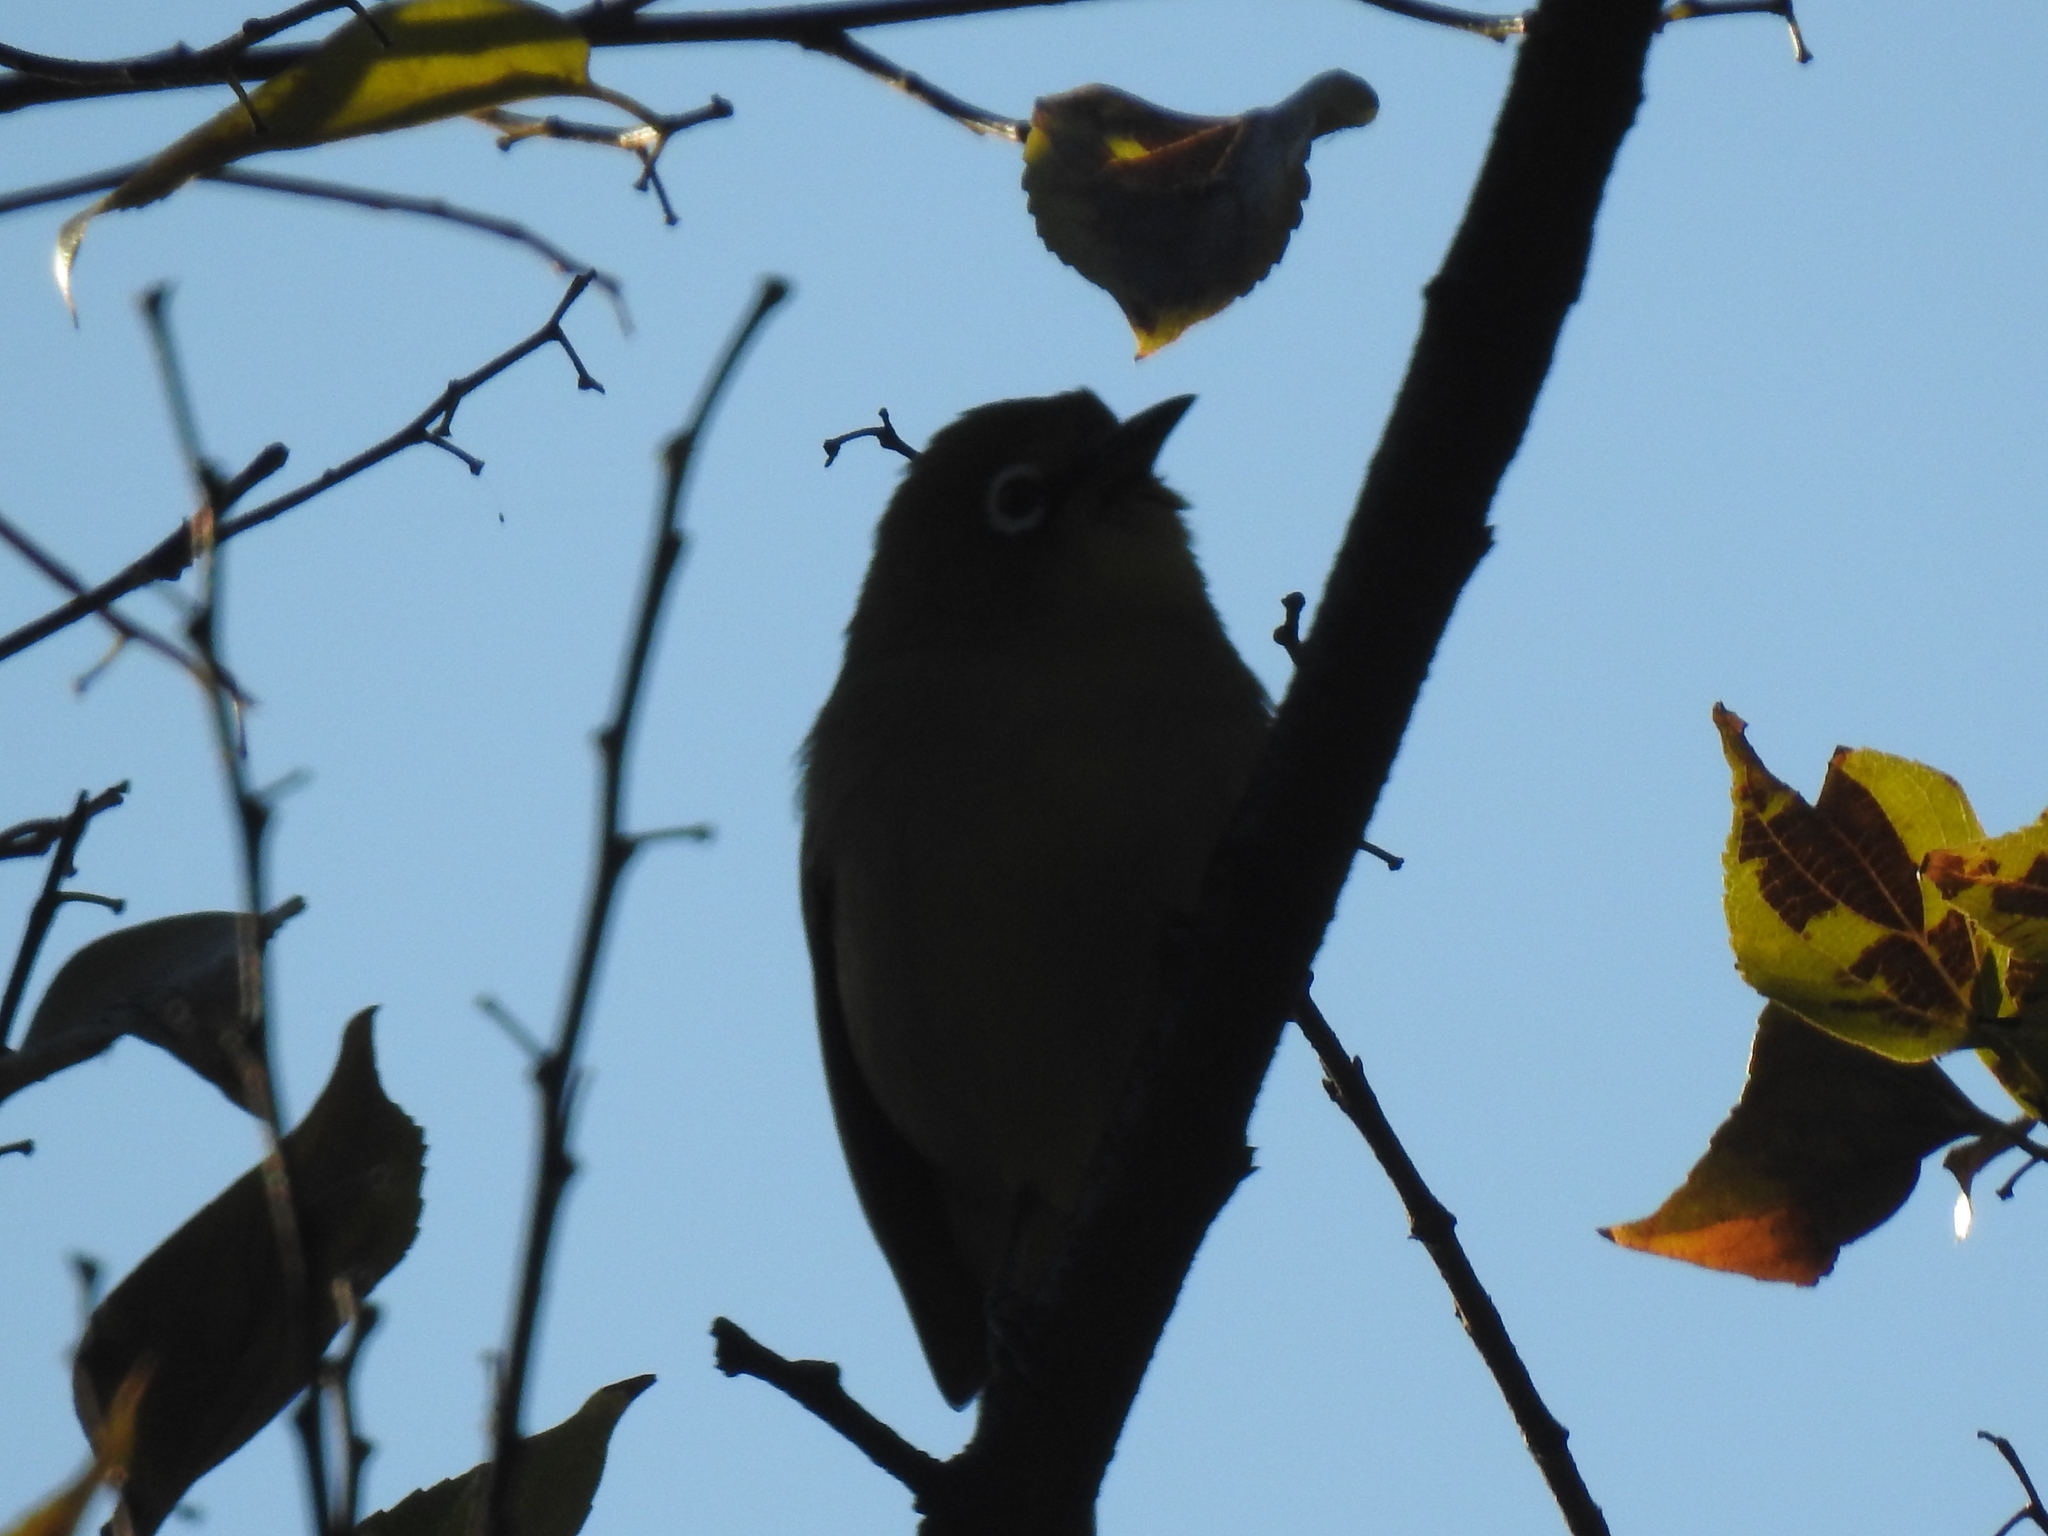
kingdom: Animalia
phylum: Chordata
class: Aves
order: Passeriformes
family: Zosteropidae
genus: Zosterops
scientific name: Zosterops virens
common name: Cape white-eye
